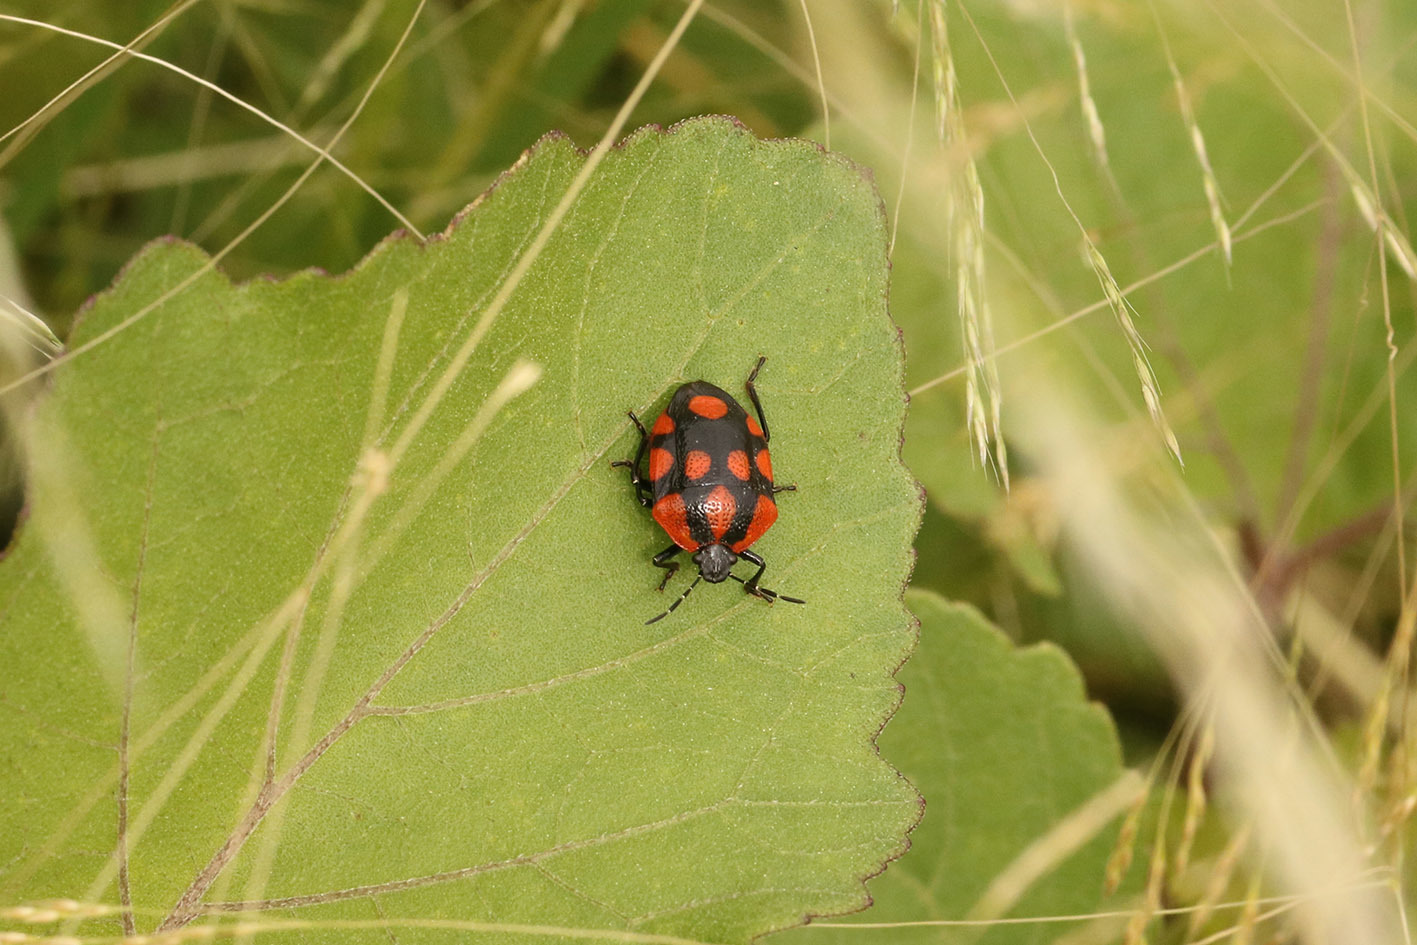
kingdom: Animalia
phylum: Arthropoda
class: Insecta
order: Hemiptera
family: Pentatomidae
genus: Stiretrus
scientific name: Stiretrus
